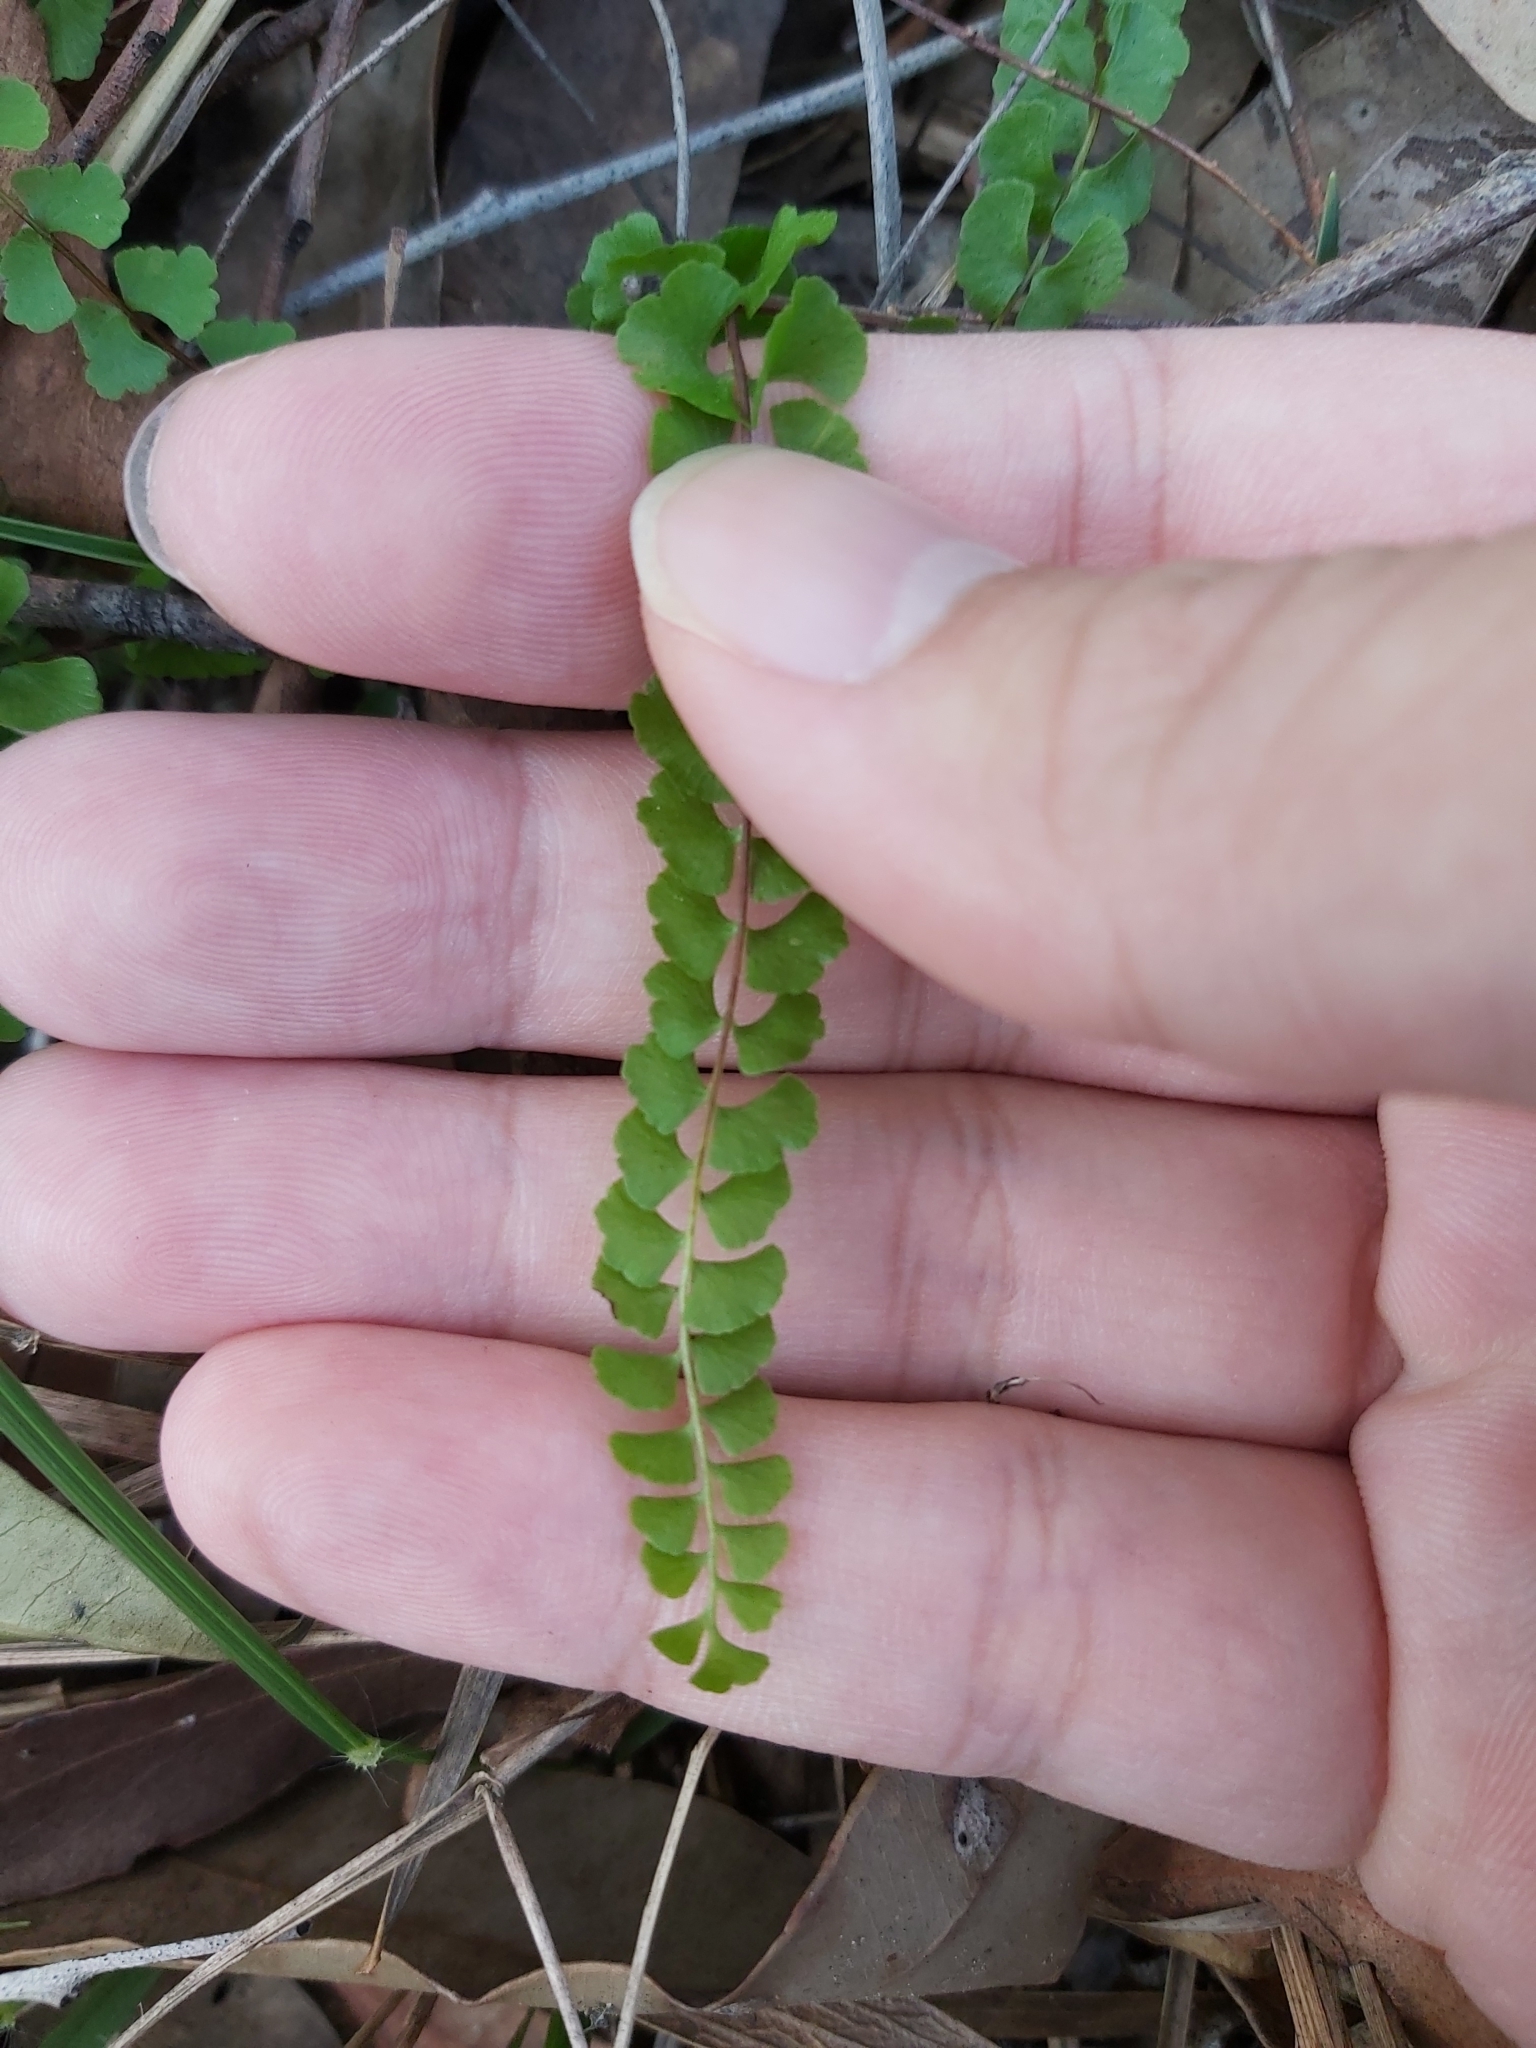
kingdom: Plantae
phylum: Tracheophyta
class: Polypodiopsida
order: Polypodiales
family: Lindsaeaceae
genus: Lindsaea
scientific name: Lindsaea linearis
